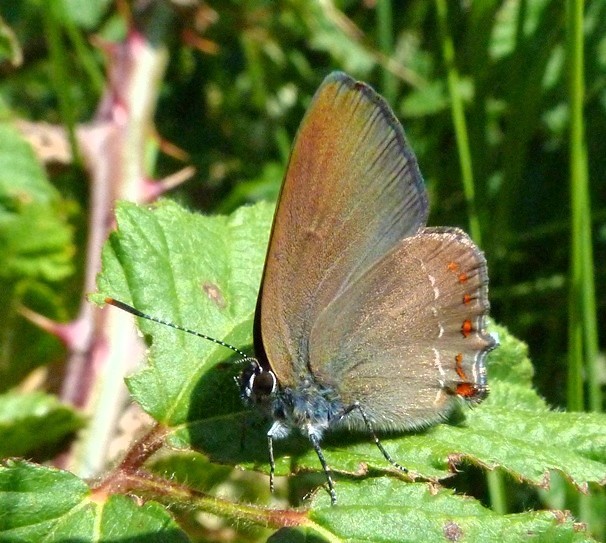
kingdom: Animalia
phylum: Arthropoda
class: Insecta
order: Lepidoptera
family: Lycaenidae
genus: Fixsenia
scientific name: Fixsenia esculi
